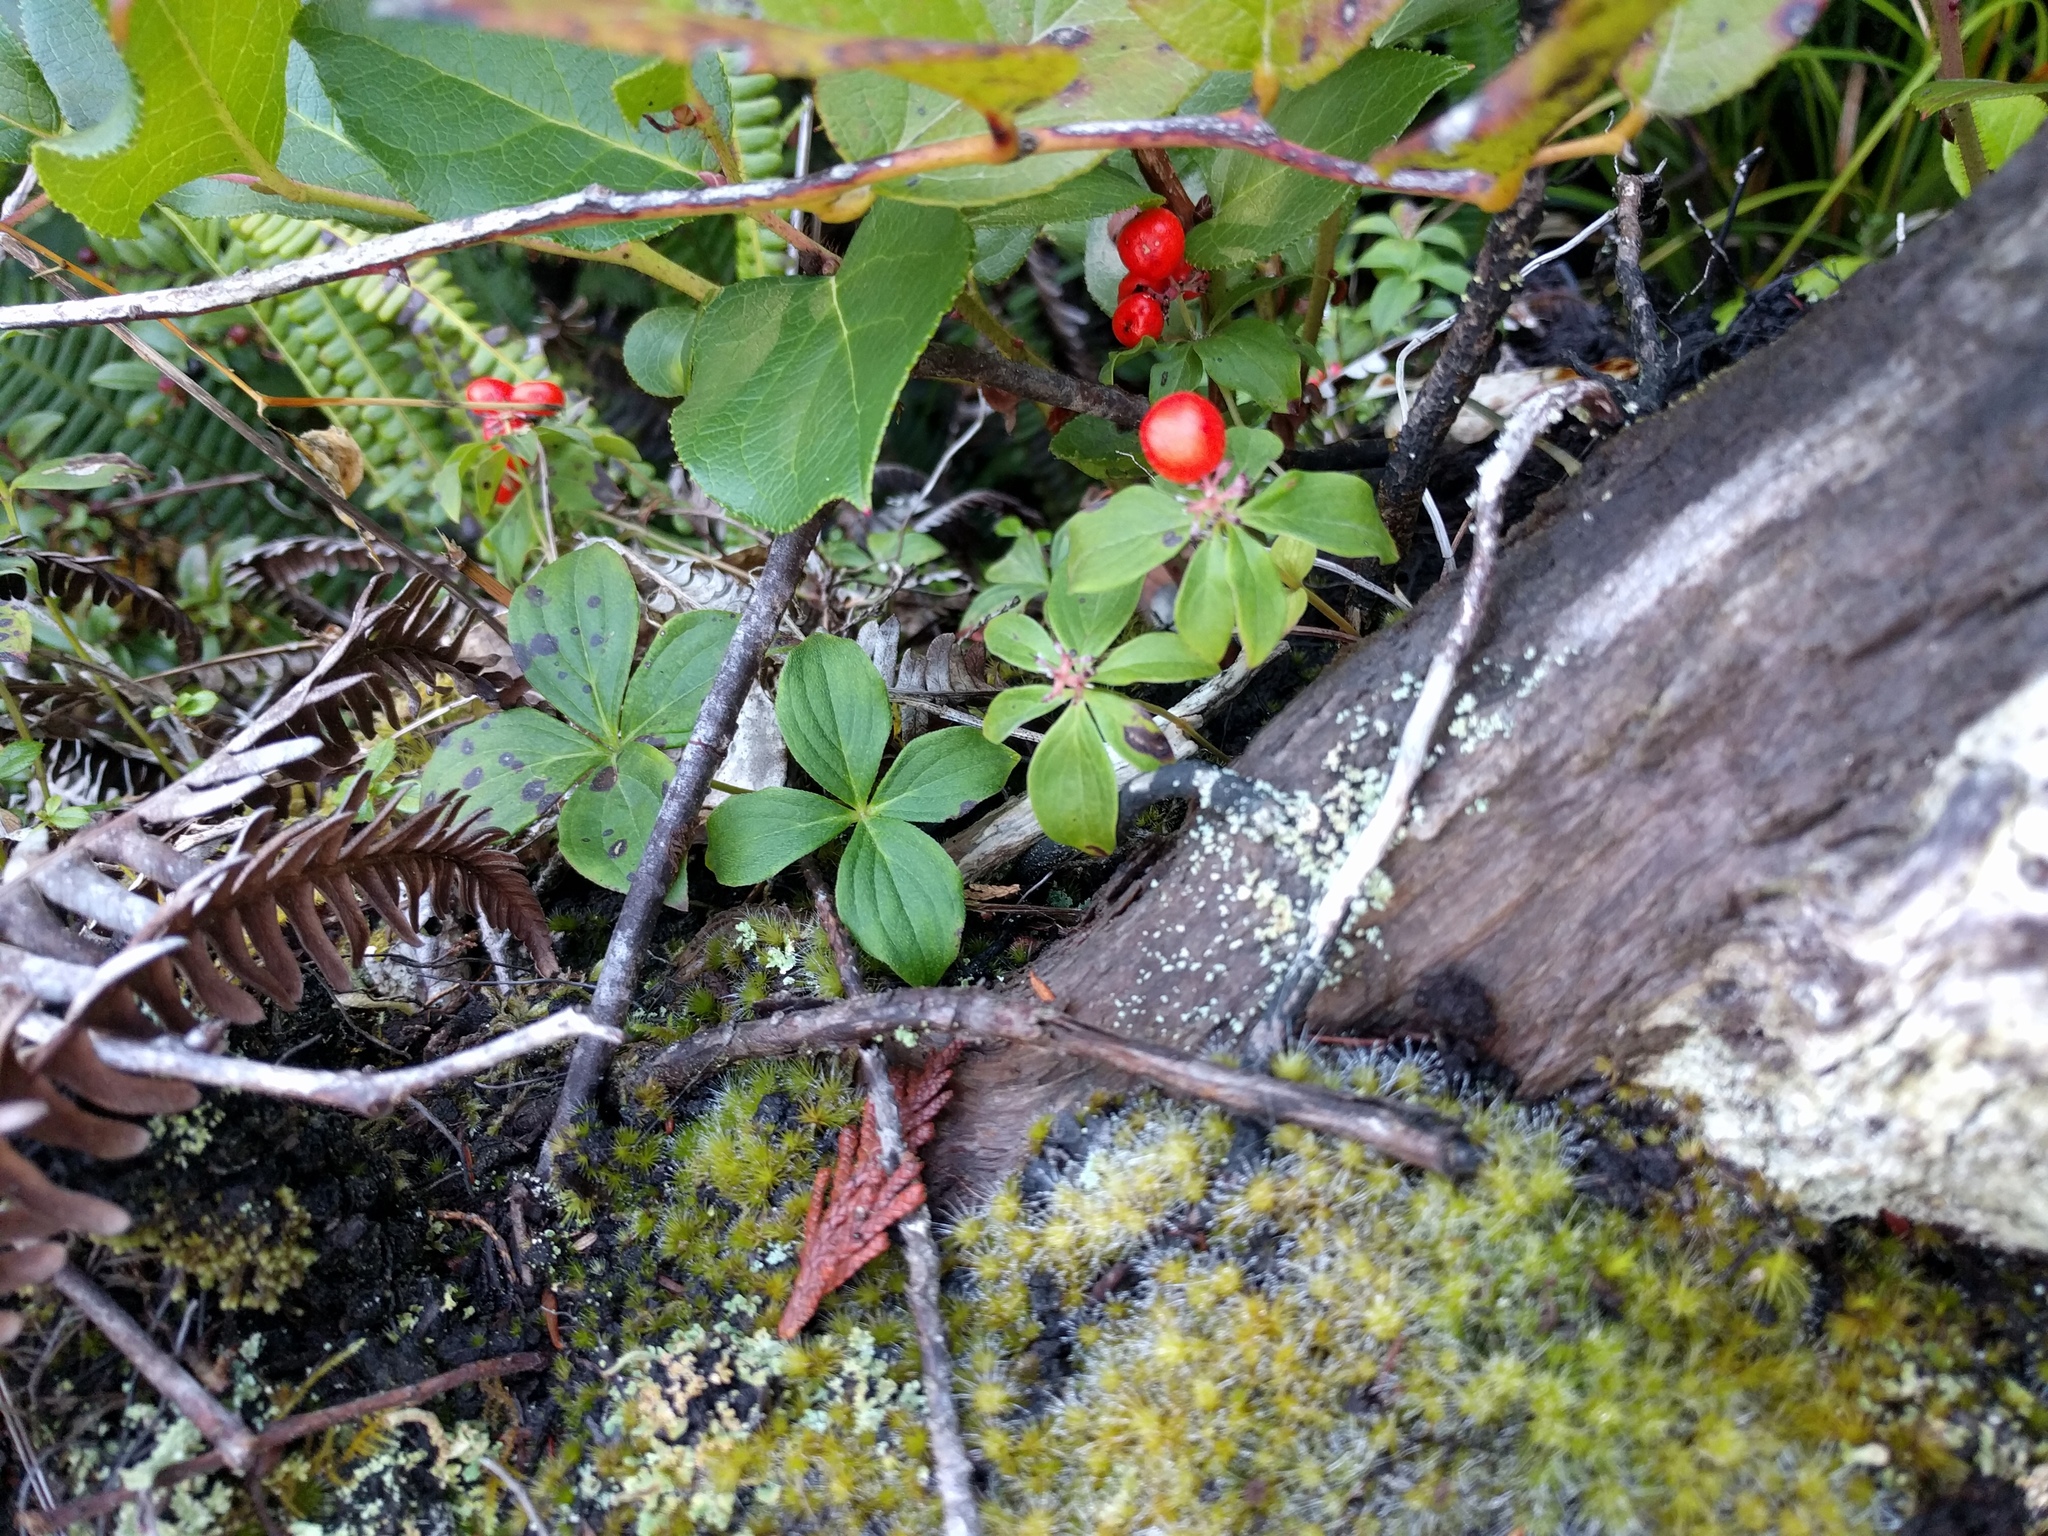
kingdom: Plantae
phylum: Tracheophyta
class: Magnoliopsida
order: Cornales
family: Cornaceae
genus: Cornus
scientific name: Cornus unalaschkensis
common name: Alaska bunchberry
